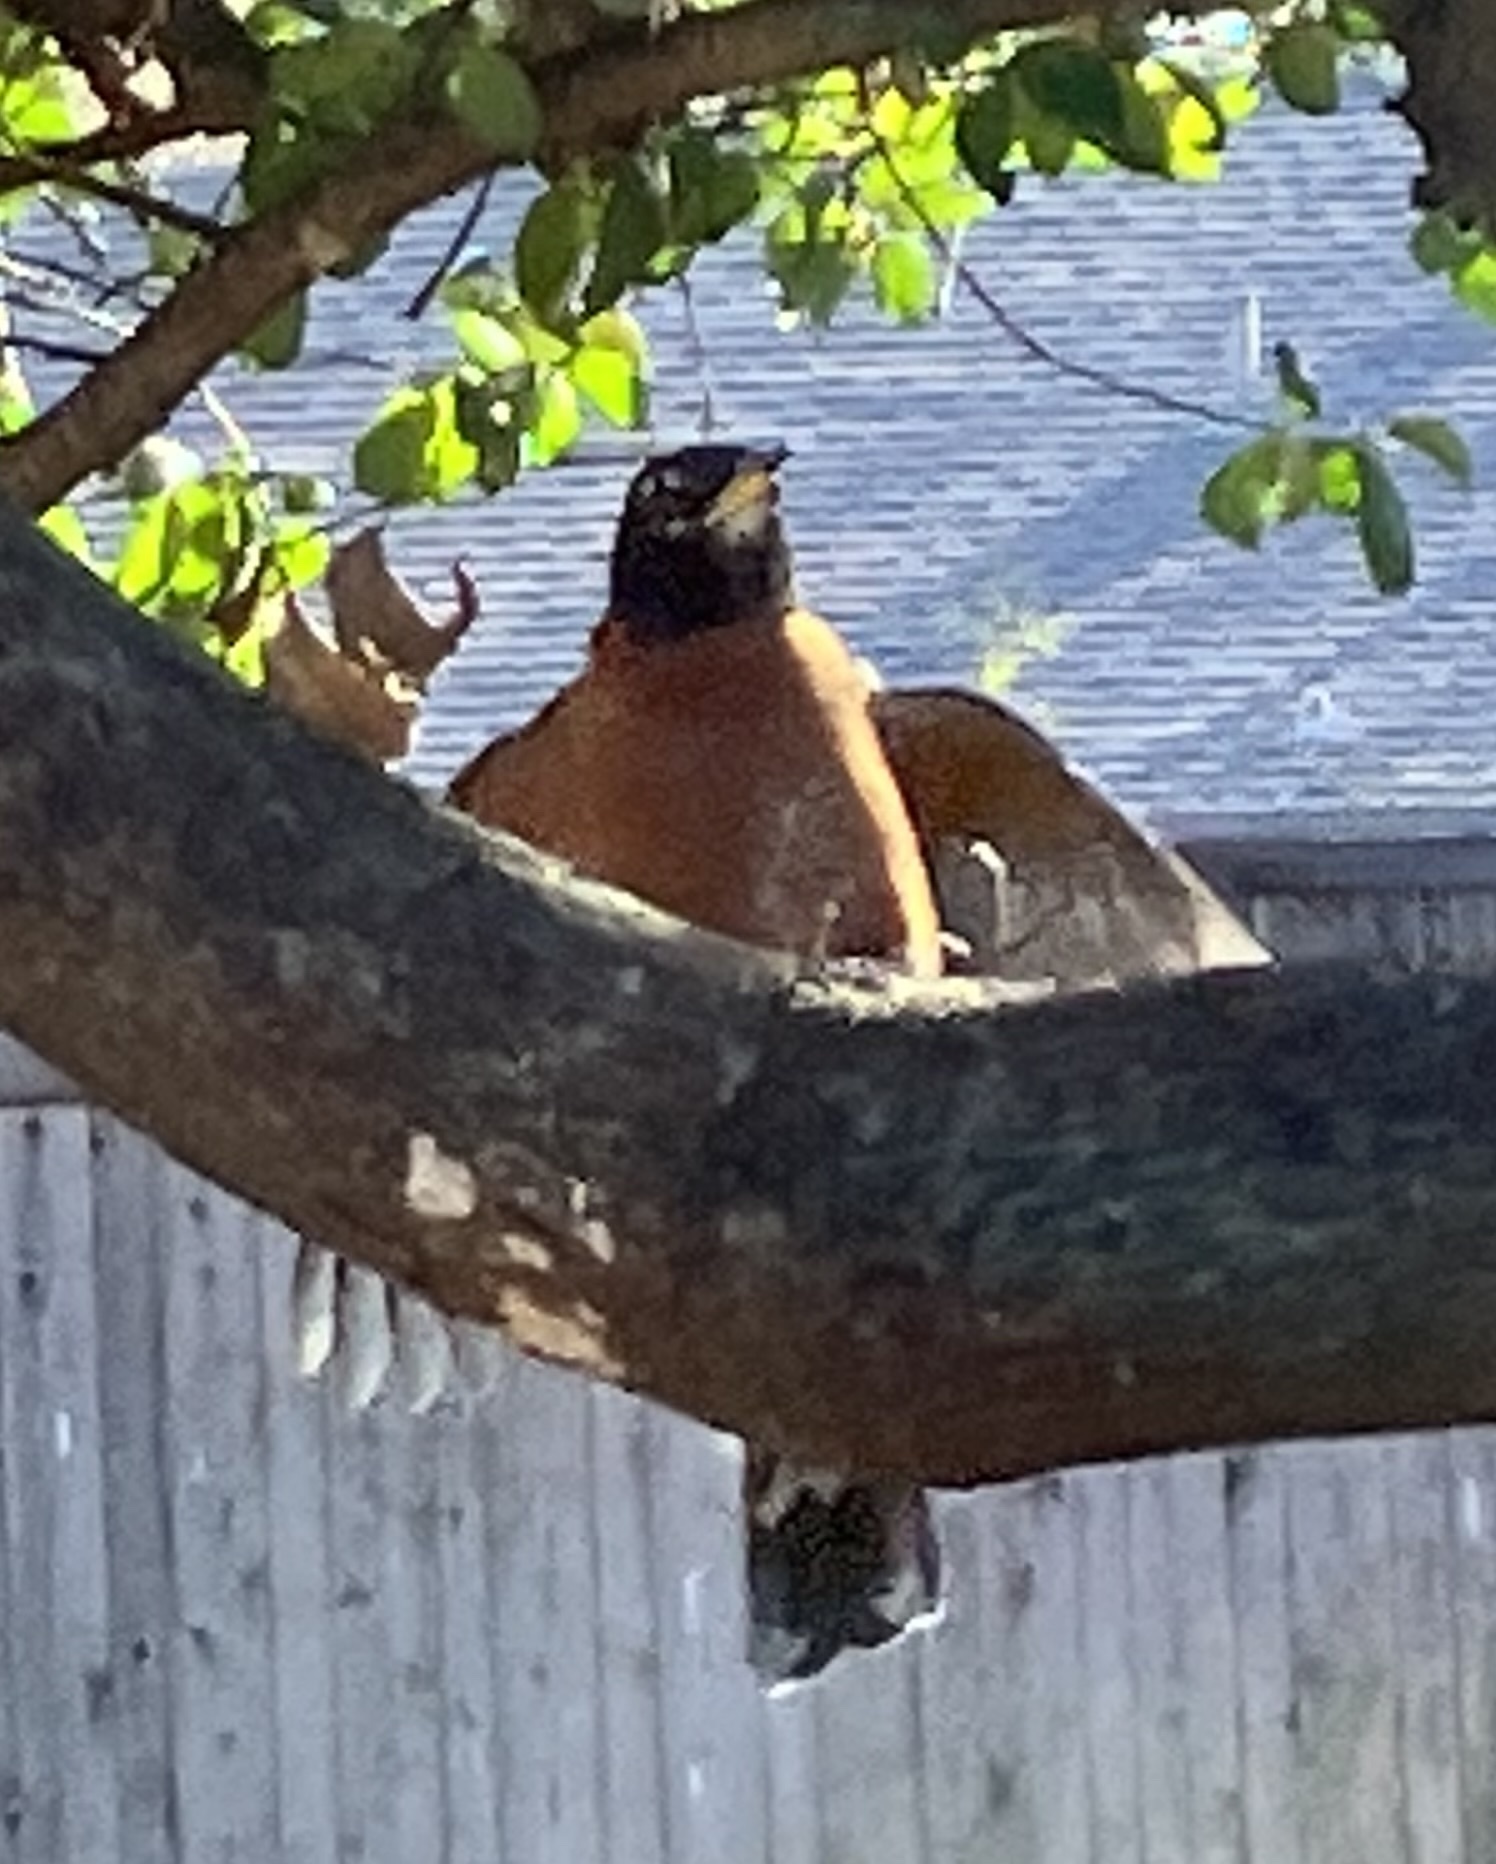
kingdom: Animalia
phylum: Chordata
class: Aves
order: Passeriformes
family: Turdidae
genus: Turdus
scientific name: Turdus migratorius
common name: American robin
